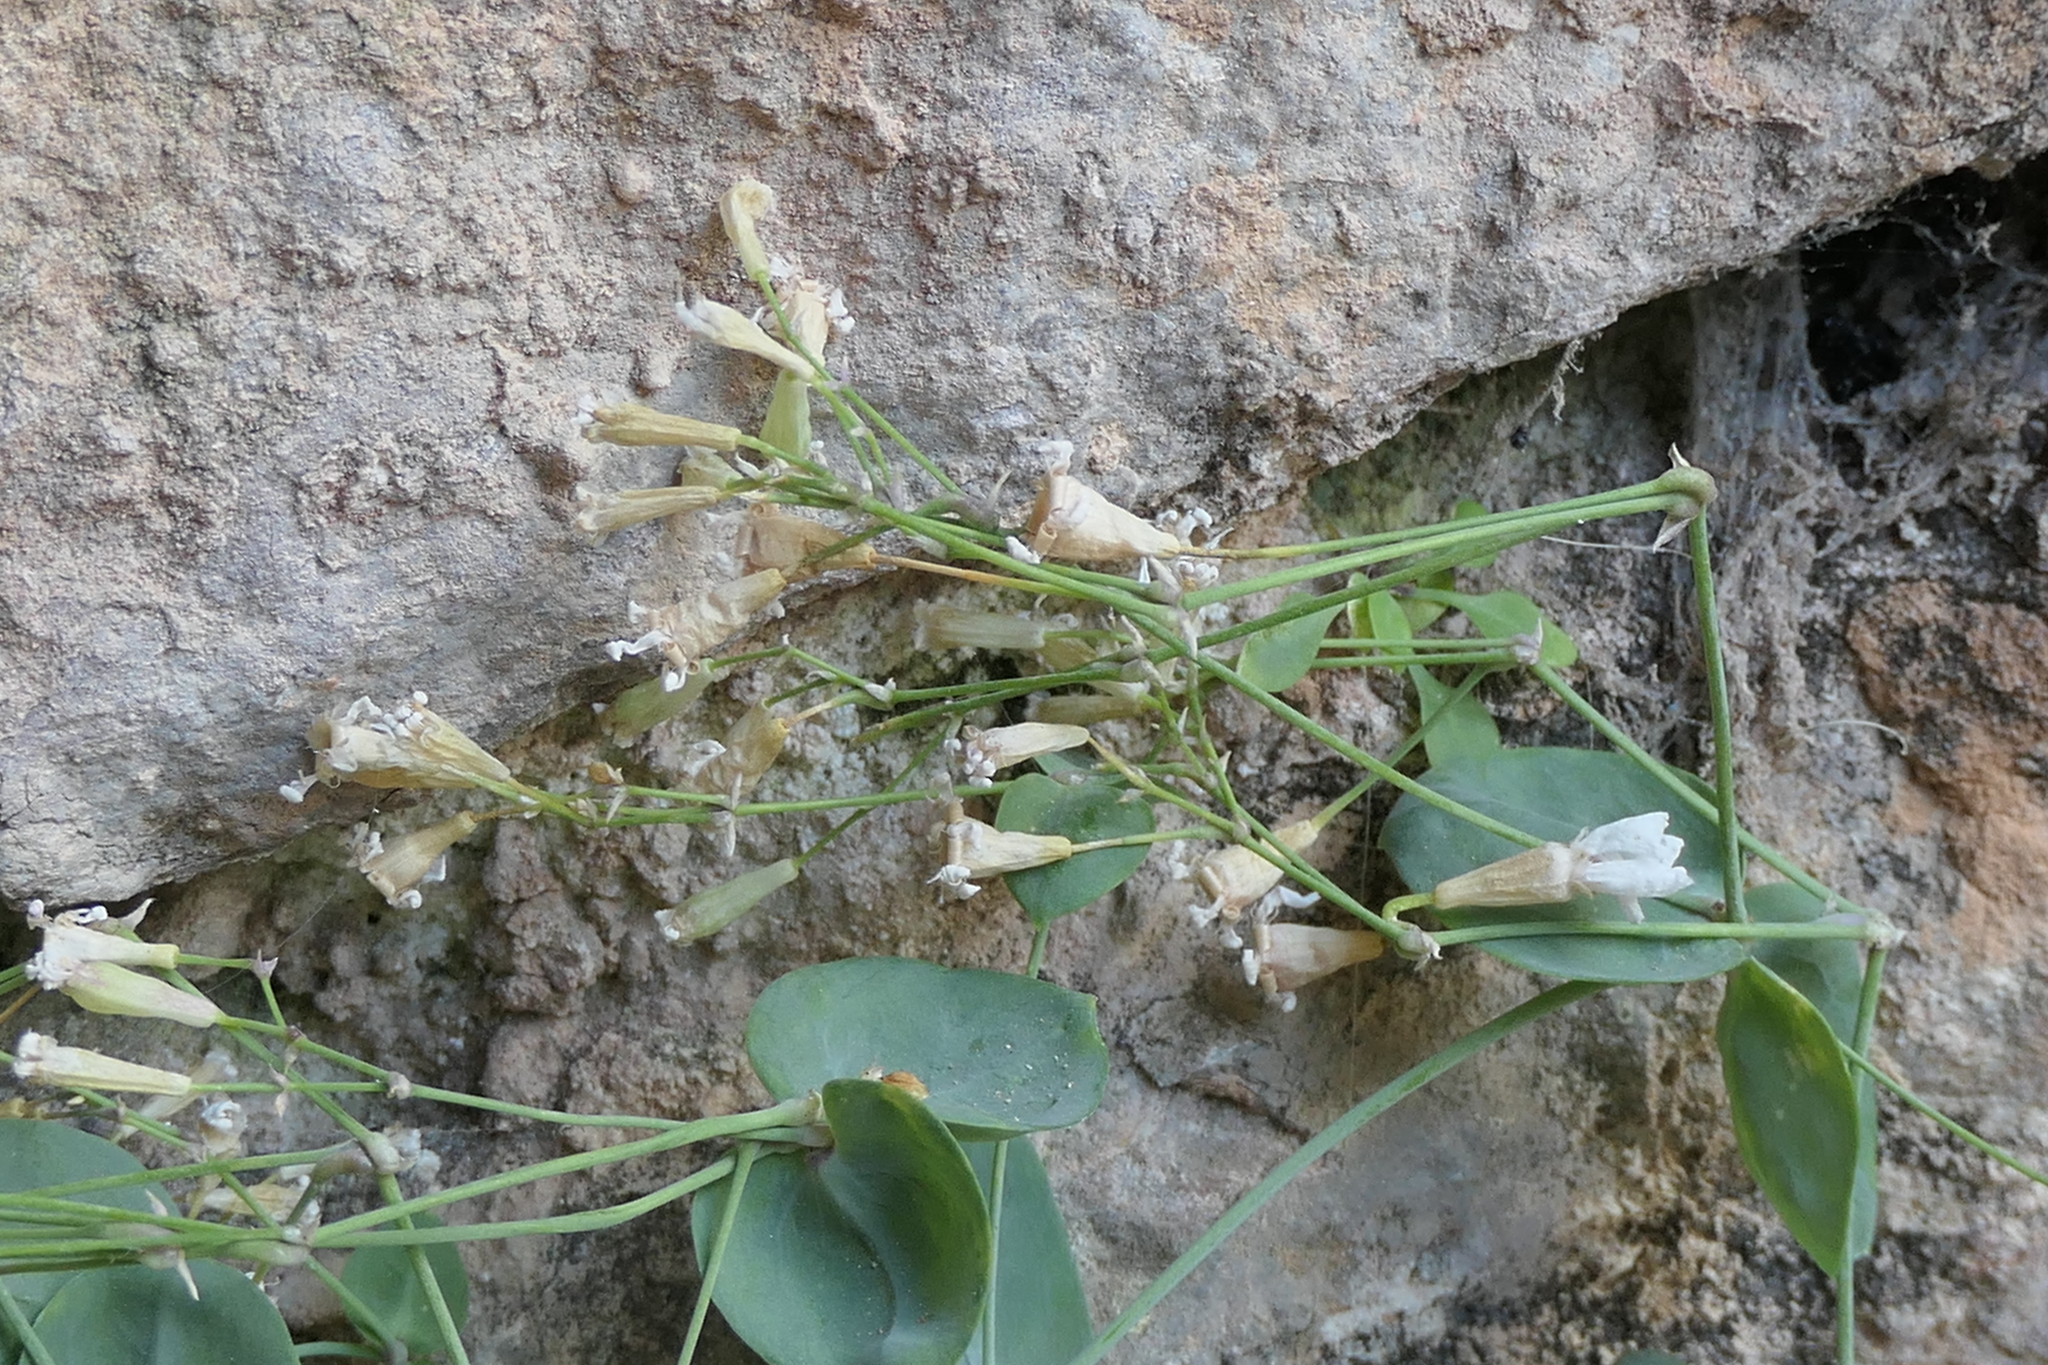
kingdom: Plantae
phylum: Tracheophyta
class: Magnoliopsida
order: Caryophyllales
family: Caryophyllaceae
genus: Petrocoptis
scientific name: Petrocoptis glaucifolia
